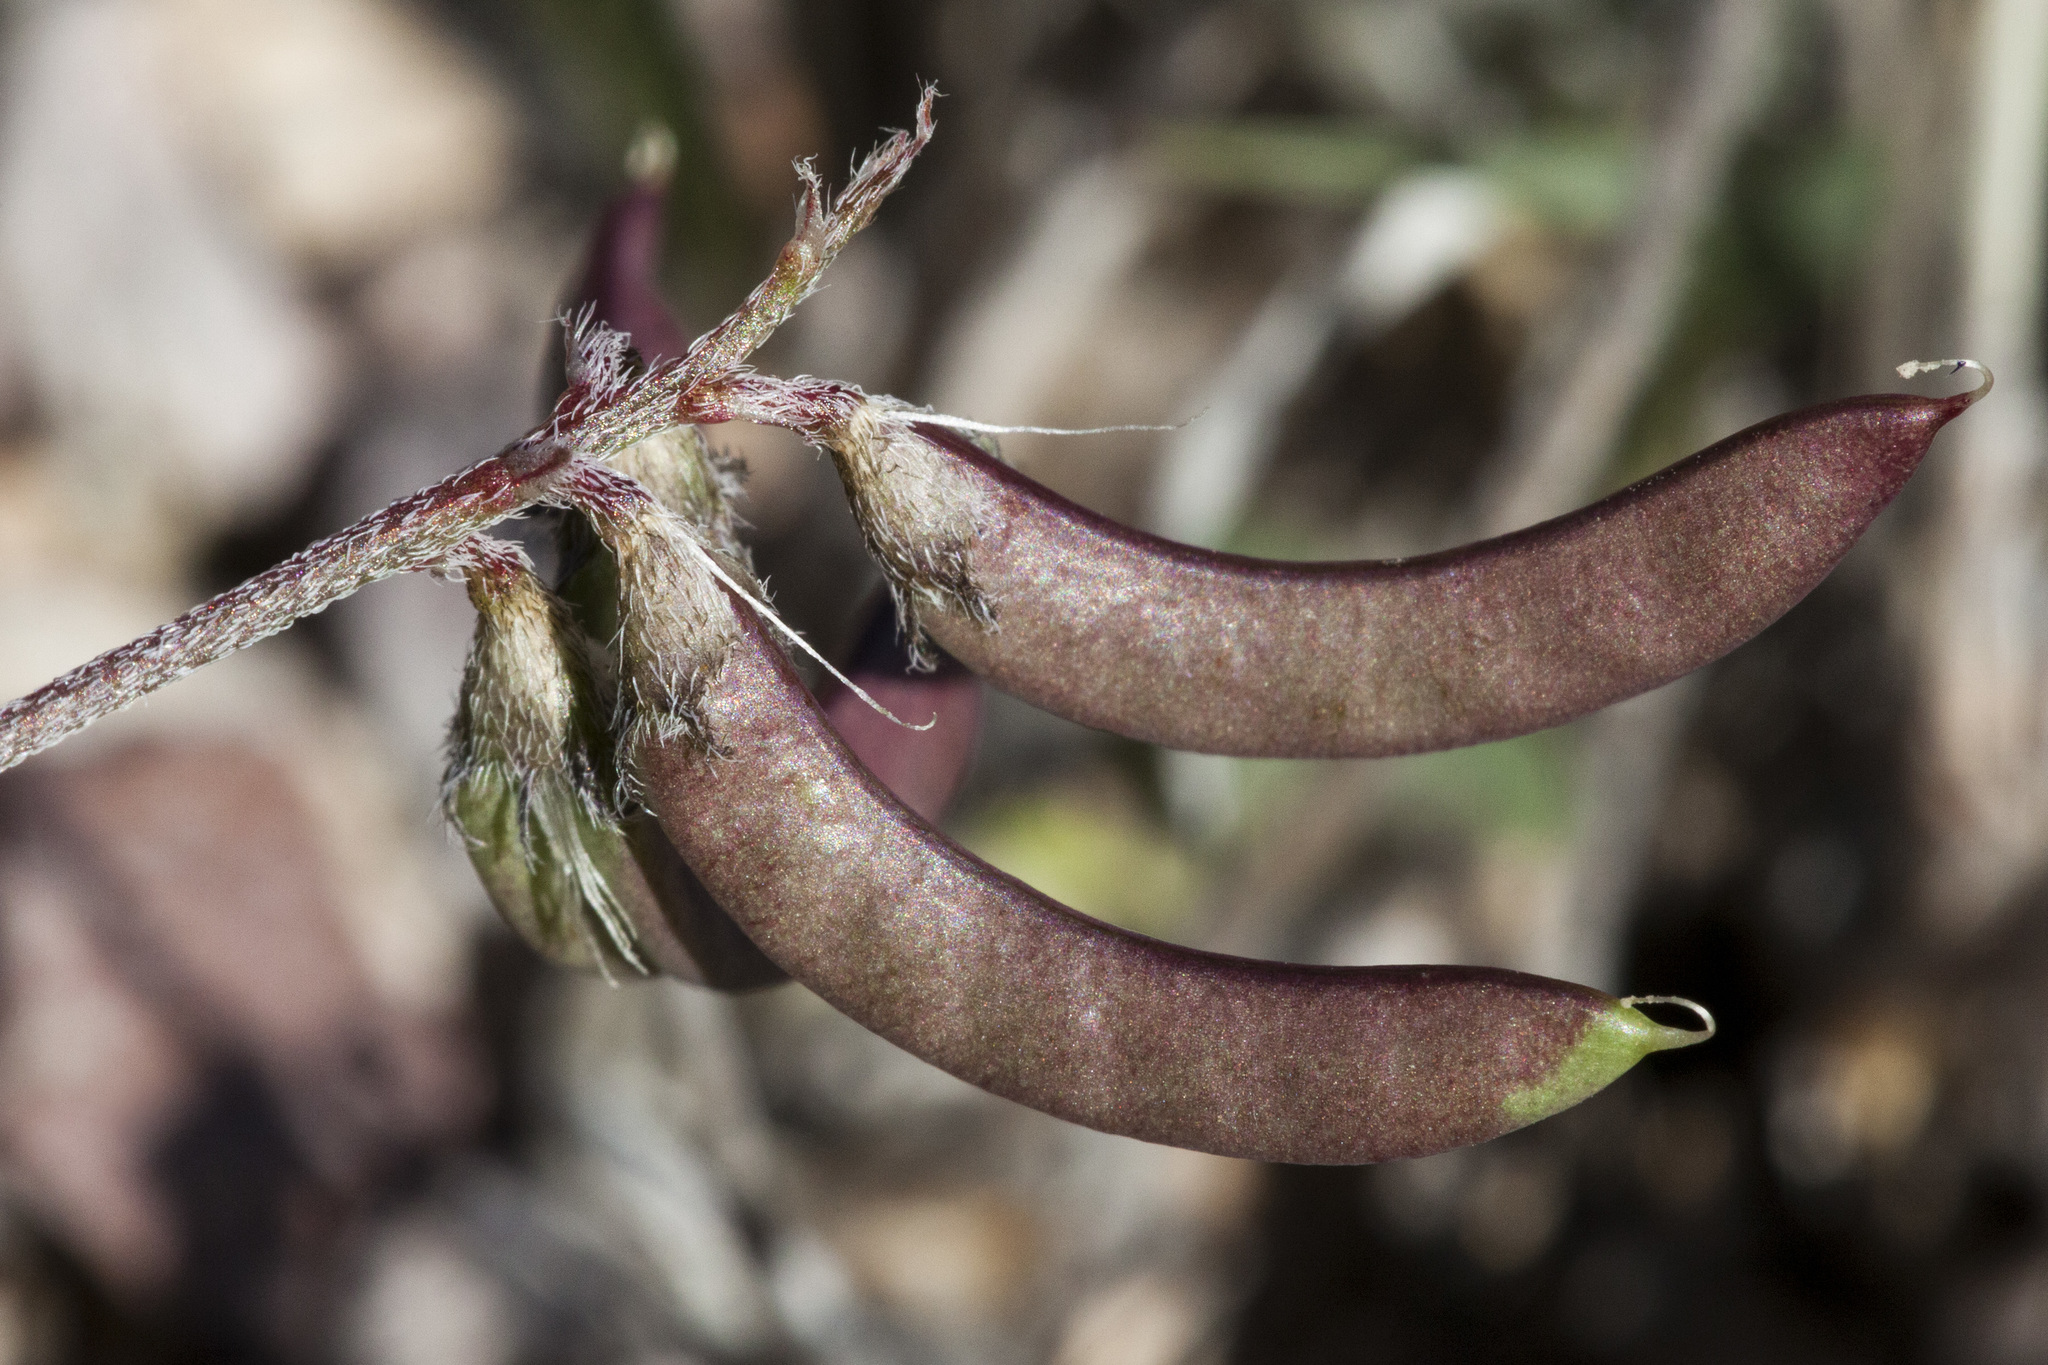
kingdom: Plantae
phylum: Tracheophyta
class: Magnoliopsida
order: Fabales
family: Fabaceae
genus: Astragalus
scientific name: Astragalus emoryanus
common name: Emory's milk-vetch
